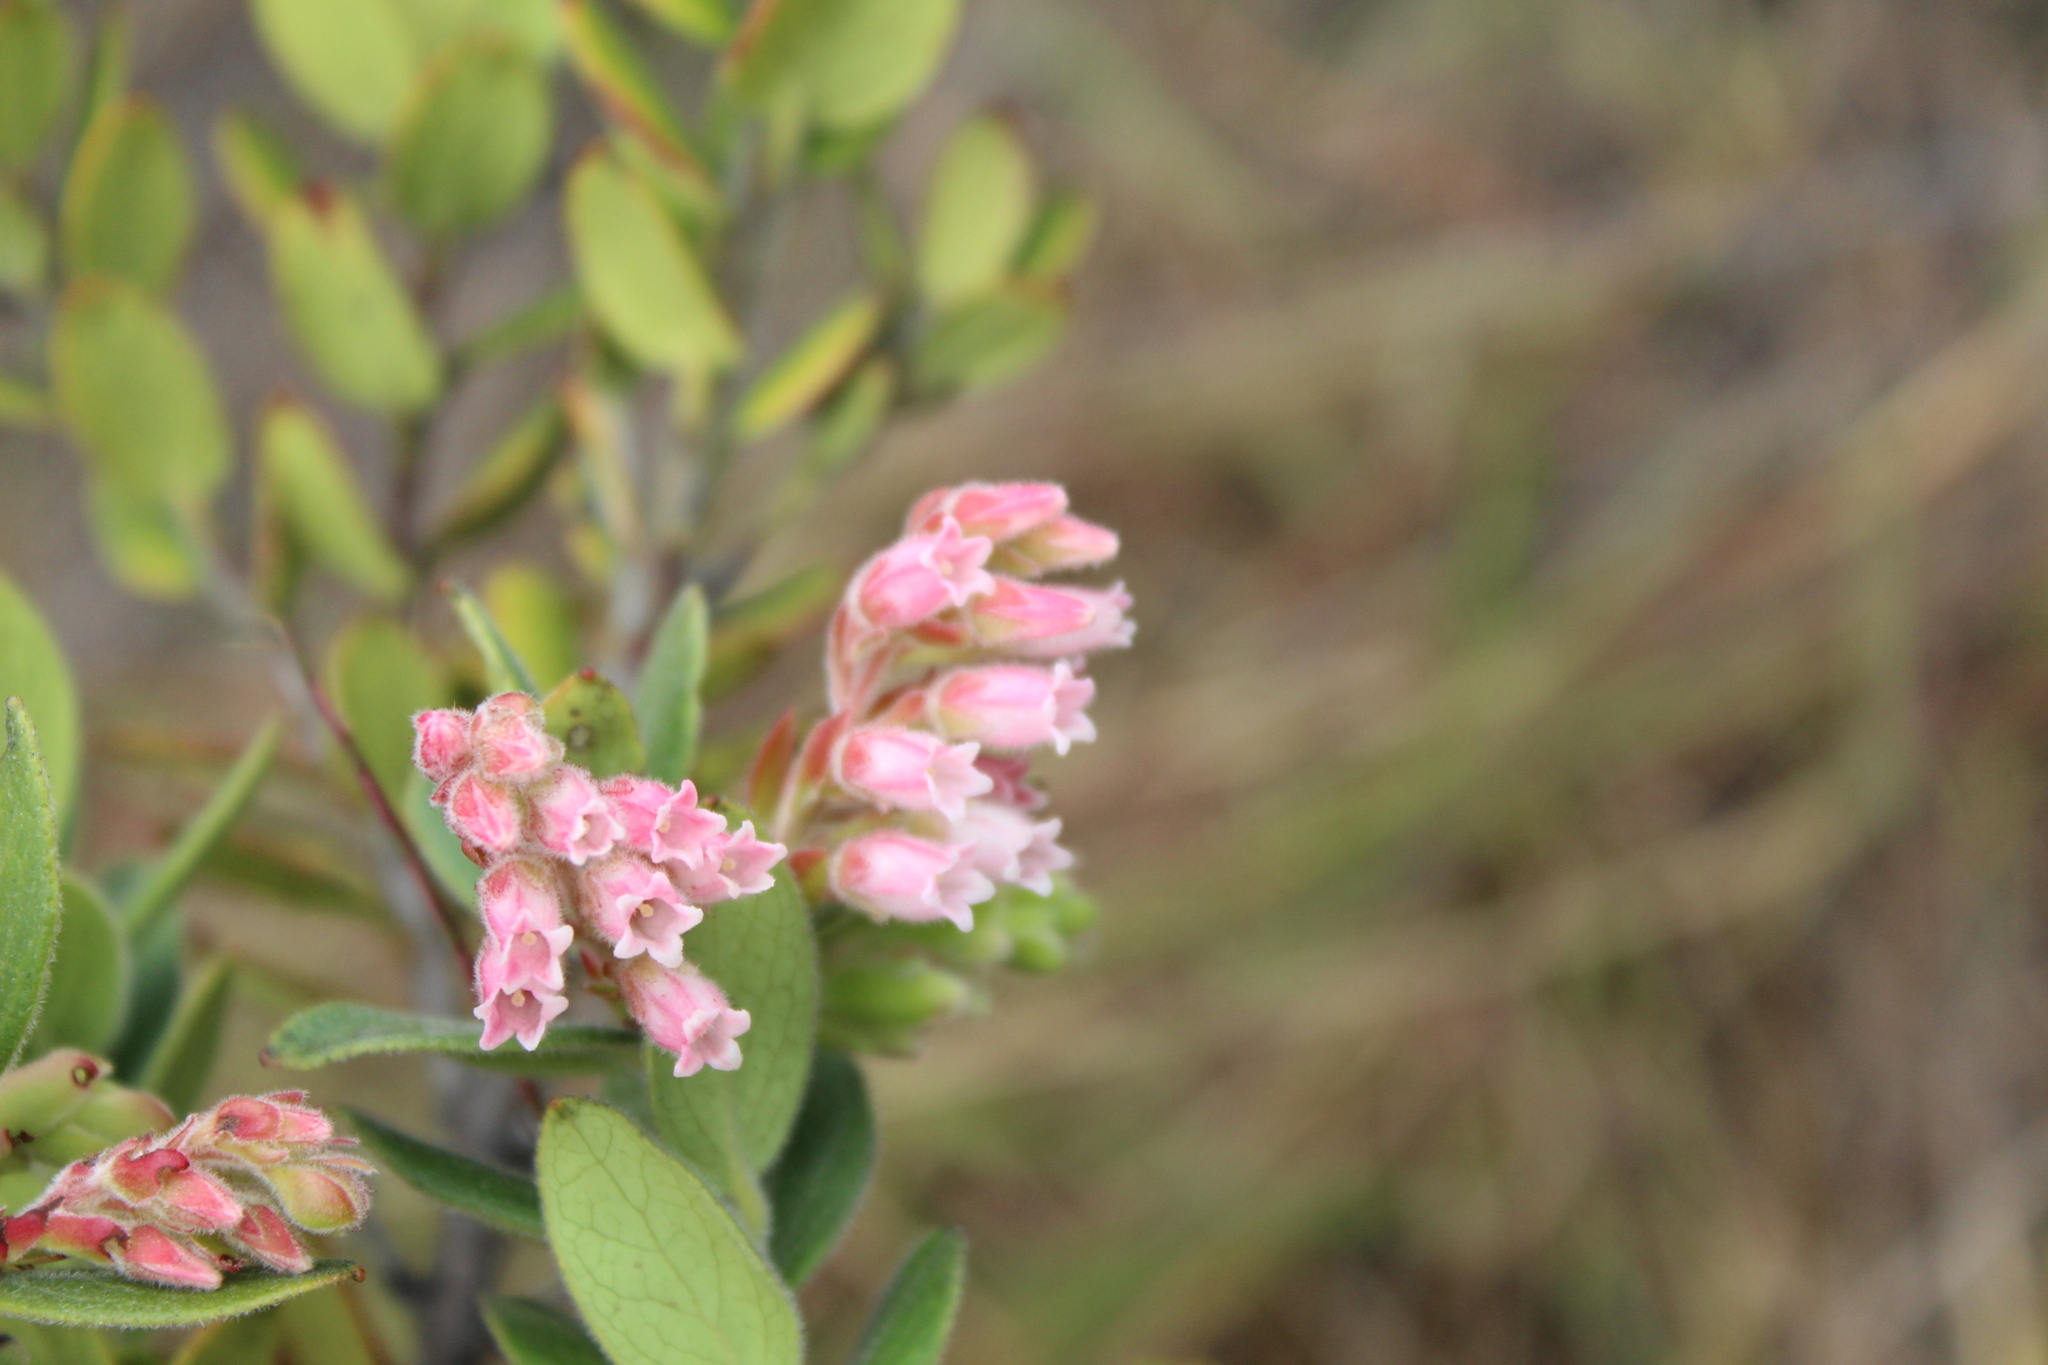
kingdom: Plantae
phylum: Tracheophyta
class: Magnoliopsida
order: Ericales
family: Ericaceae
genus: Gaylussacia
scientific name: Gaylussacia buxifolia
